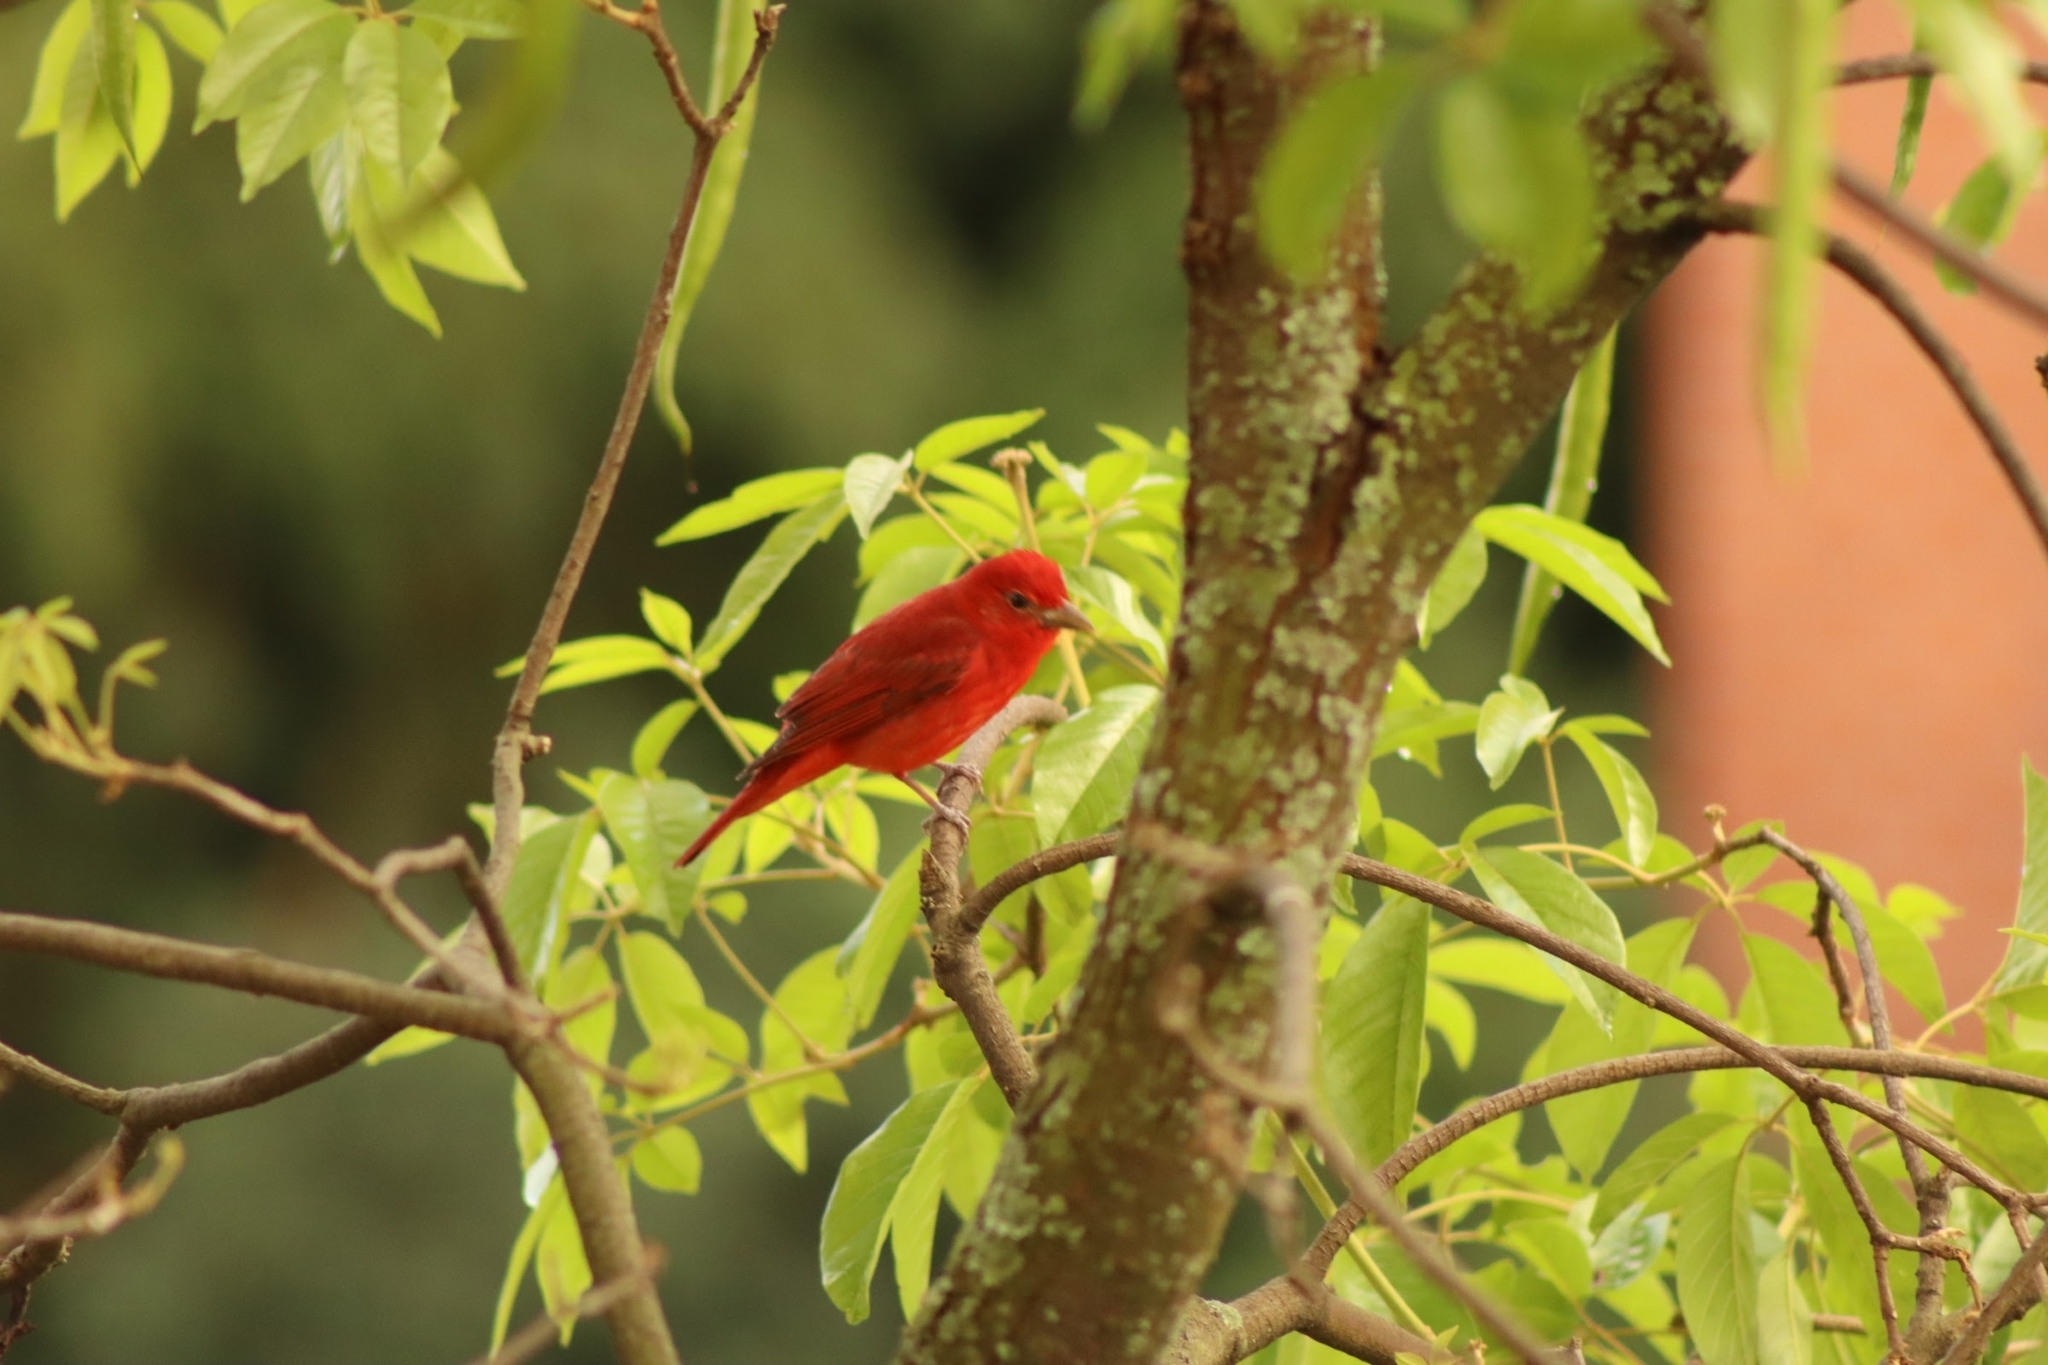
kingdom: Animalia
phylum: Chordata
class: Aves
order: Passeriformes
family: Cardinalidae
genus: Piranga
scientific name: Piranga rubra
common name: Summer tanager
